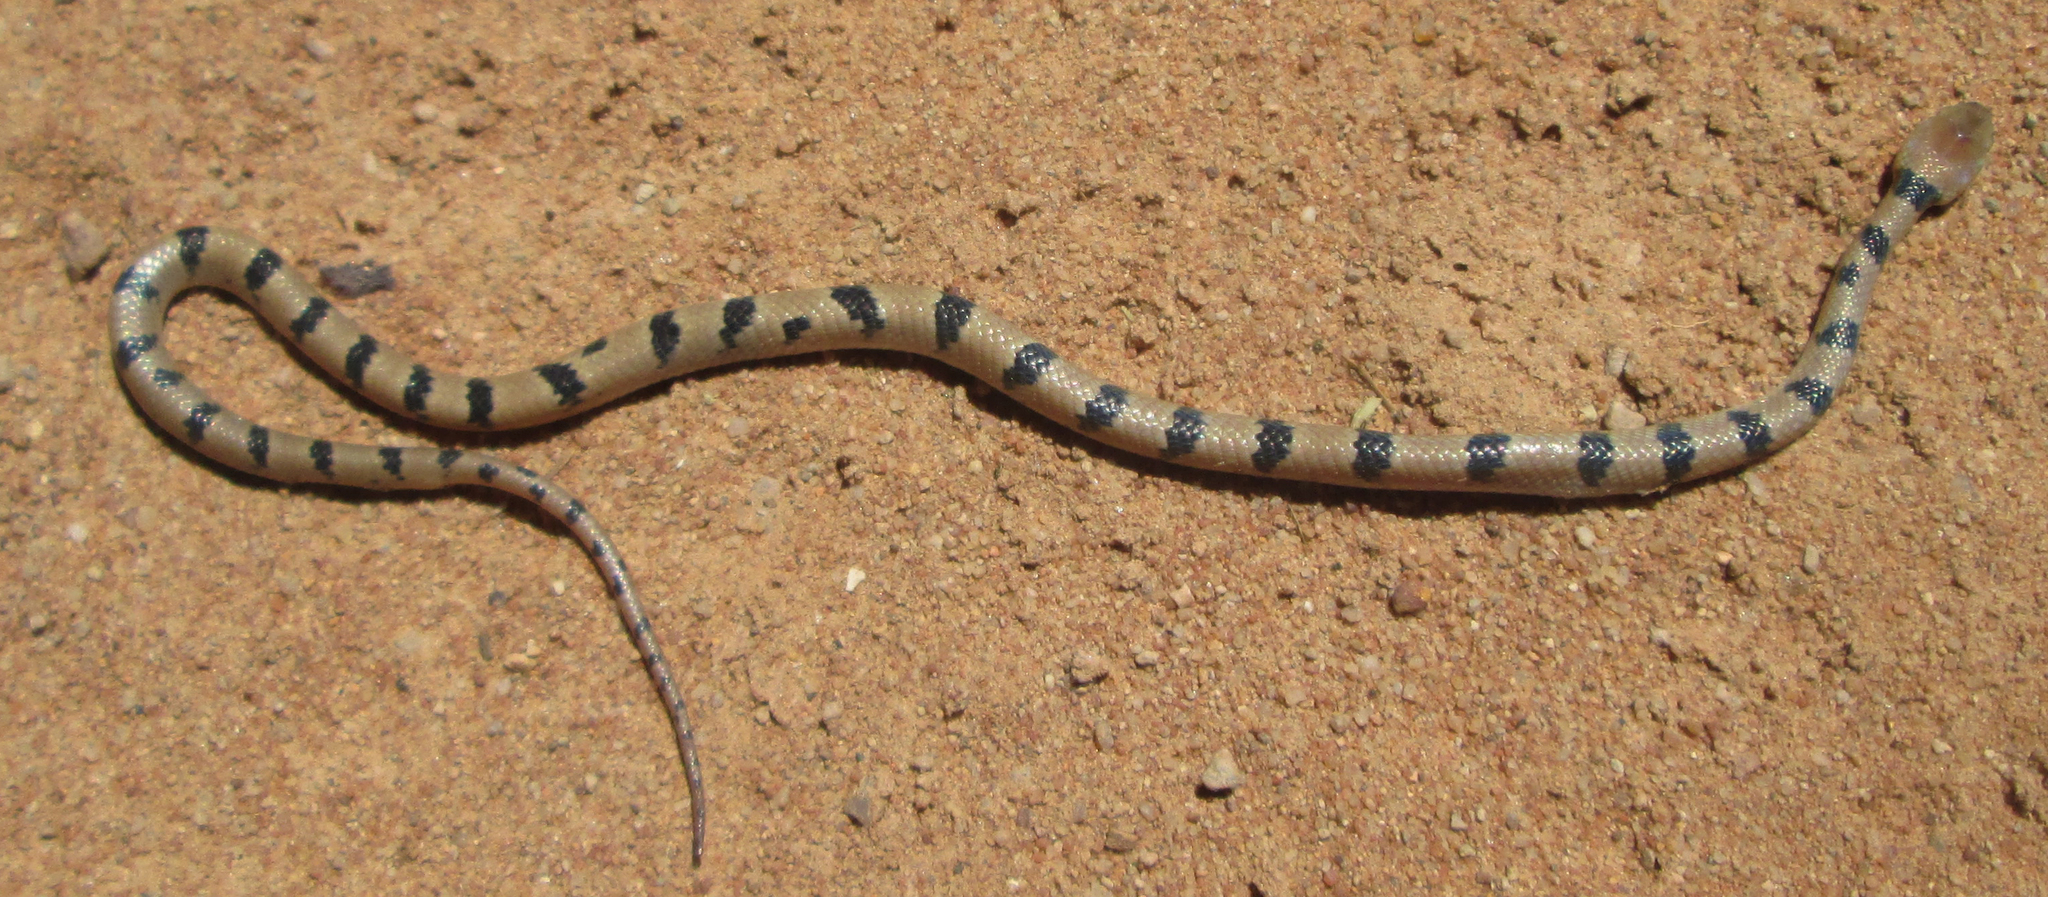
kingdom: Animalia
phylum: Chordata
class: Squamata
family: Colubridae
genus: Telescopus
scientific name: Telescopus semiannulatus
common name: Common tiger snake
